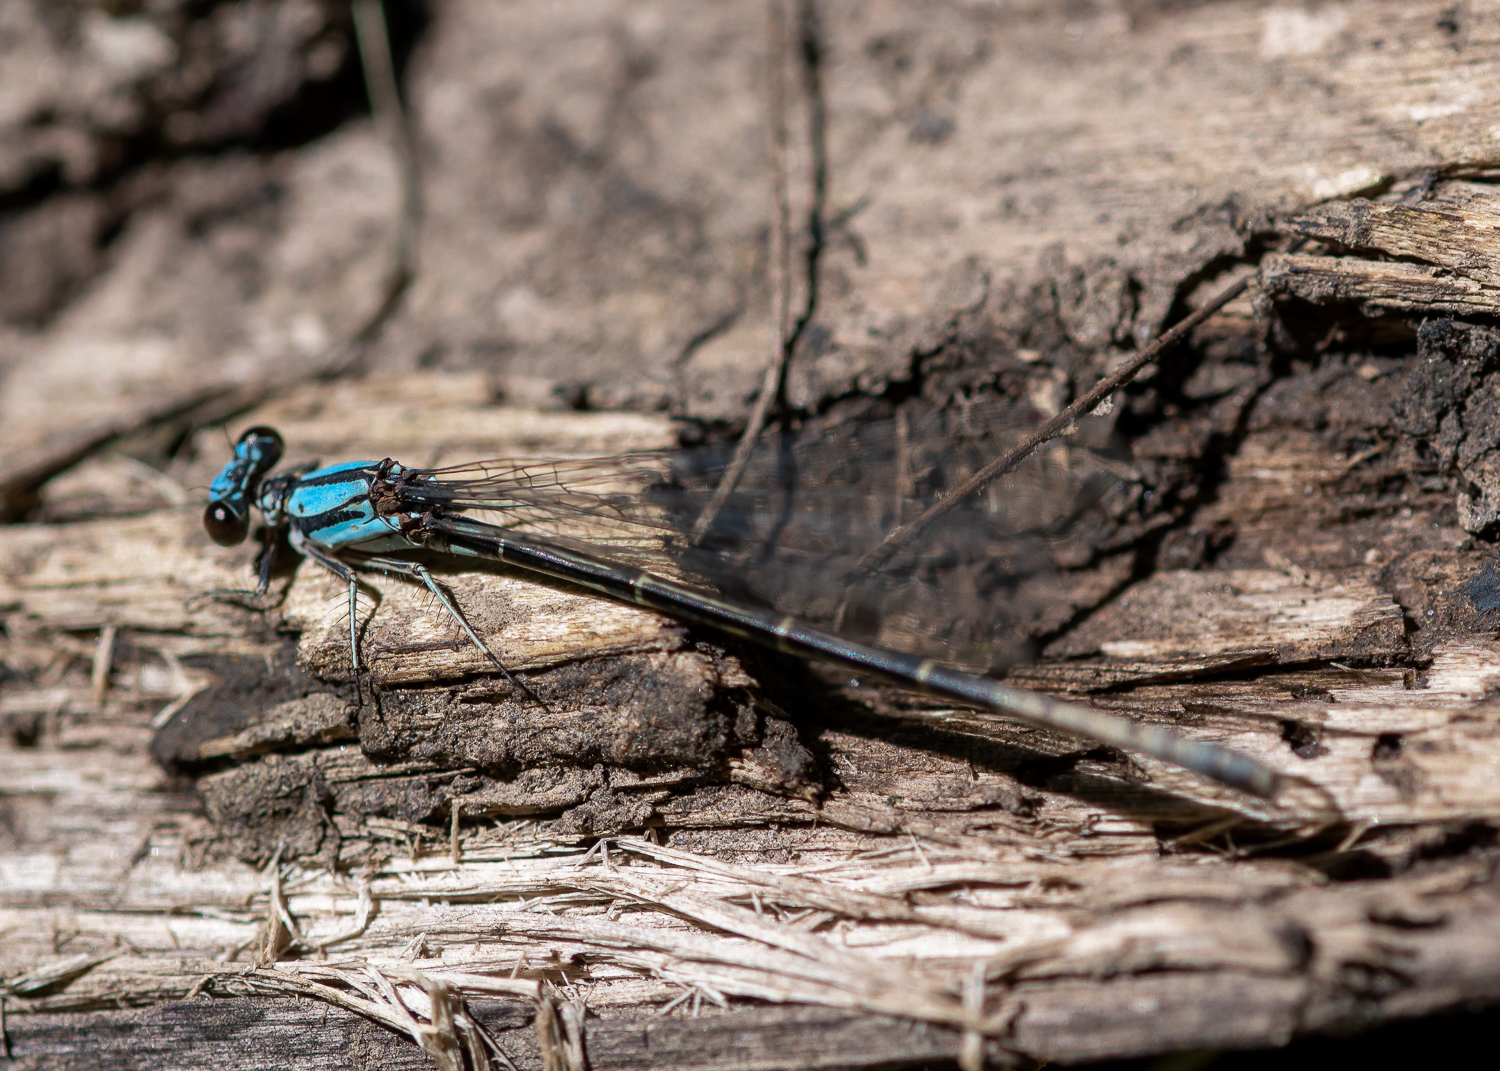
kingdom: Animalia
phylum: Arthropoda
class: Insecta
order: Odonata
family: Coenagrionidae
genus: Argia
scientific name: Argia tibialis
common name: Blue-tipped dancer
